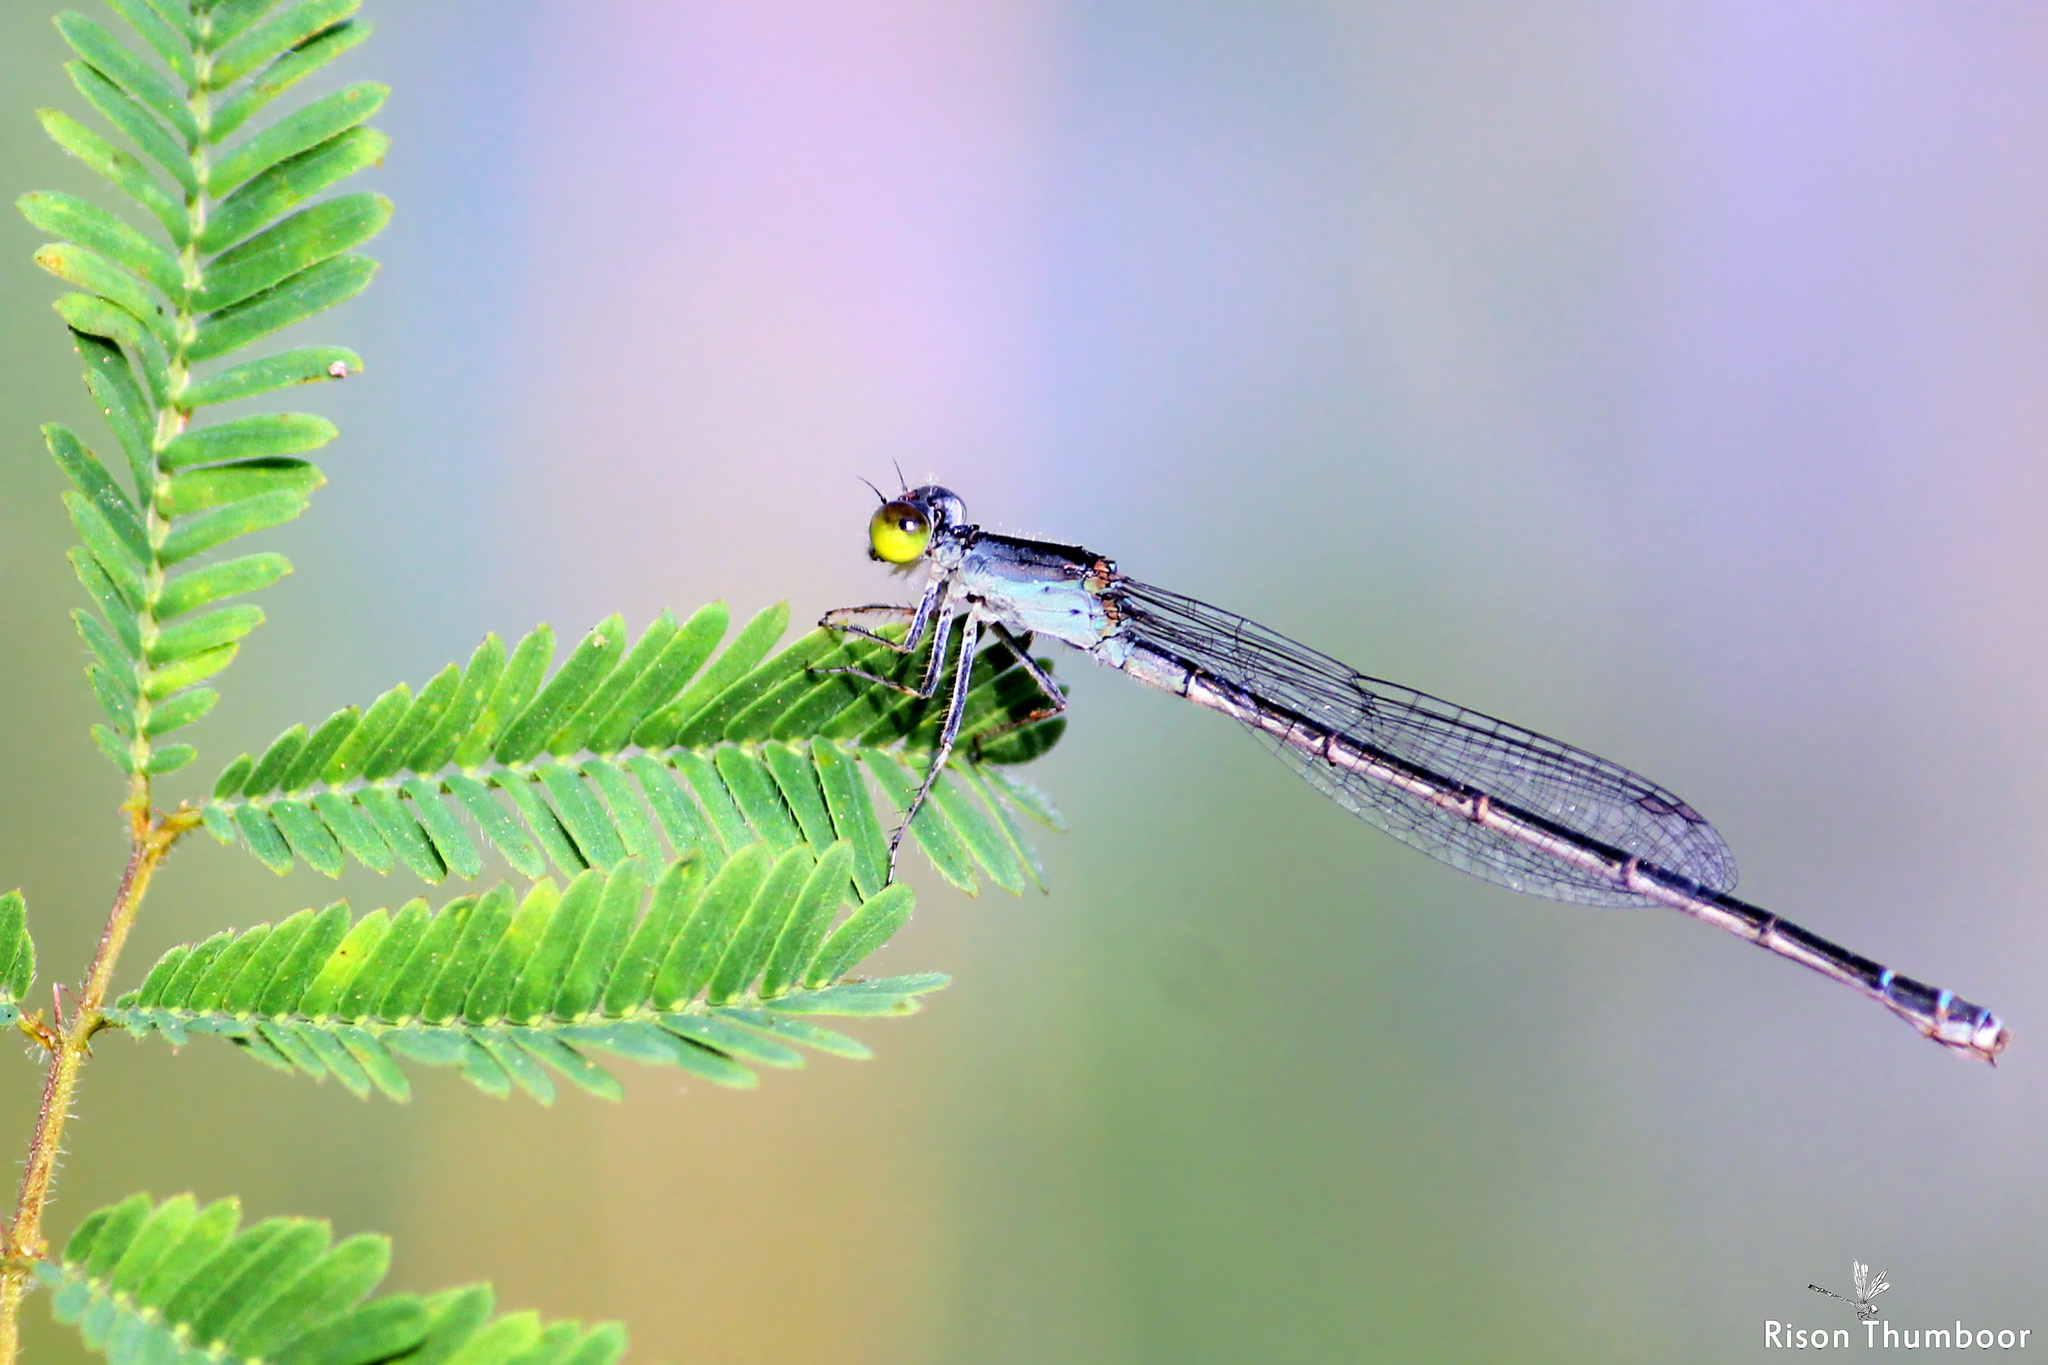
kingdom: Animalia
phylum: Arthropoda
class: Insecta
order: Odonata
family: Coenagrionidae
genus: Paracercion
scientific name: Paracercion calamorum
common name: Dusky lilysquatter
